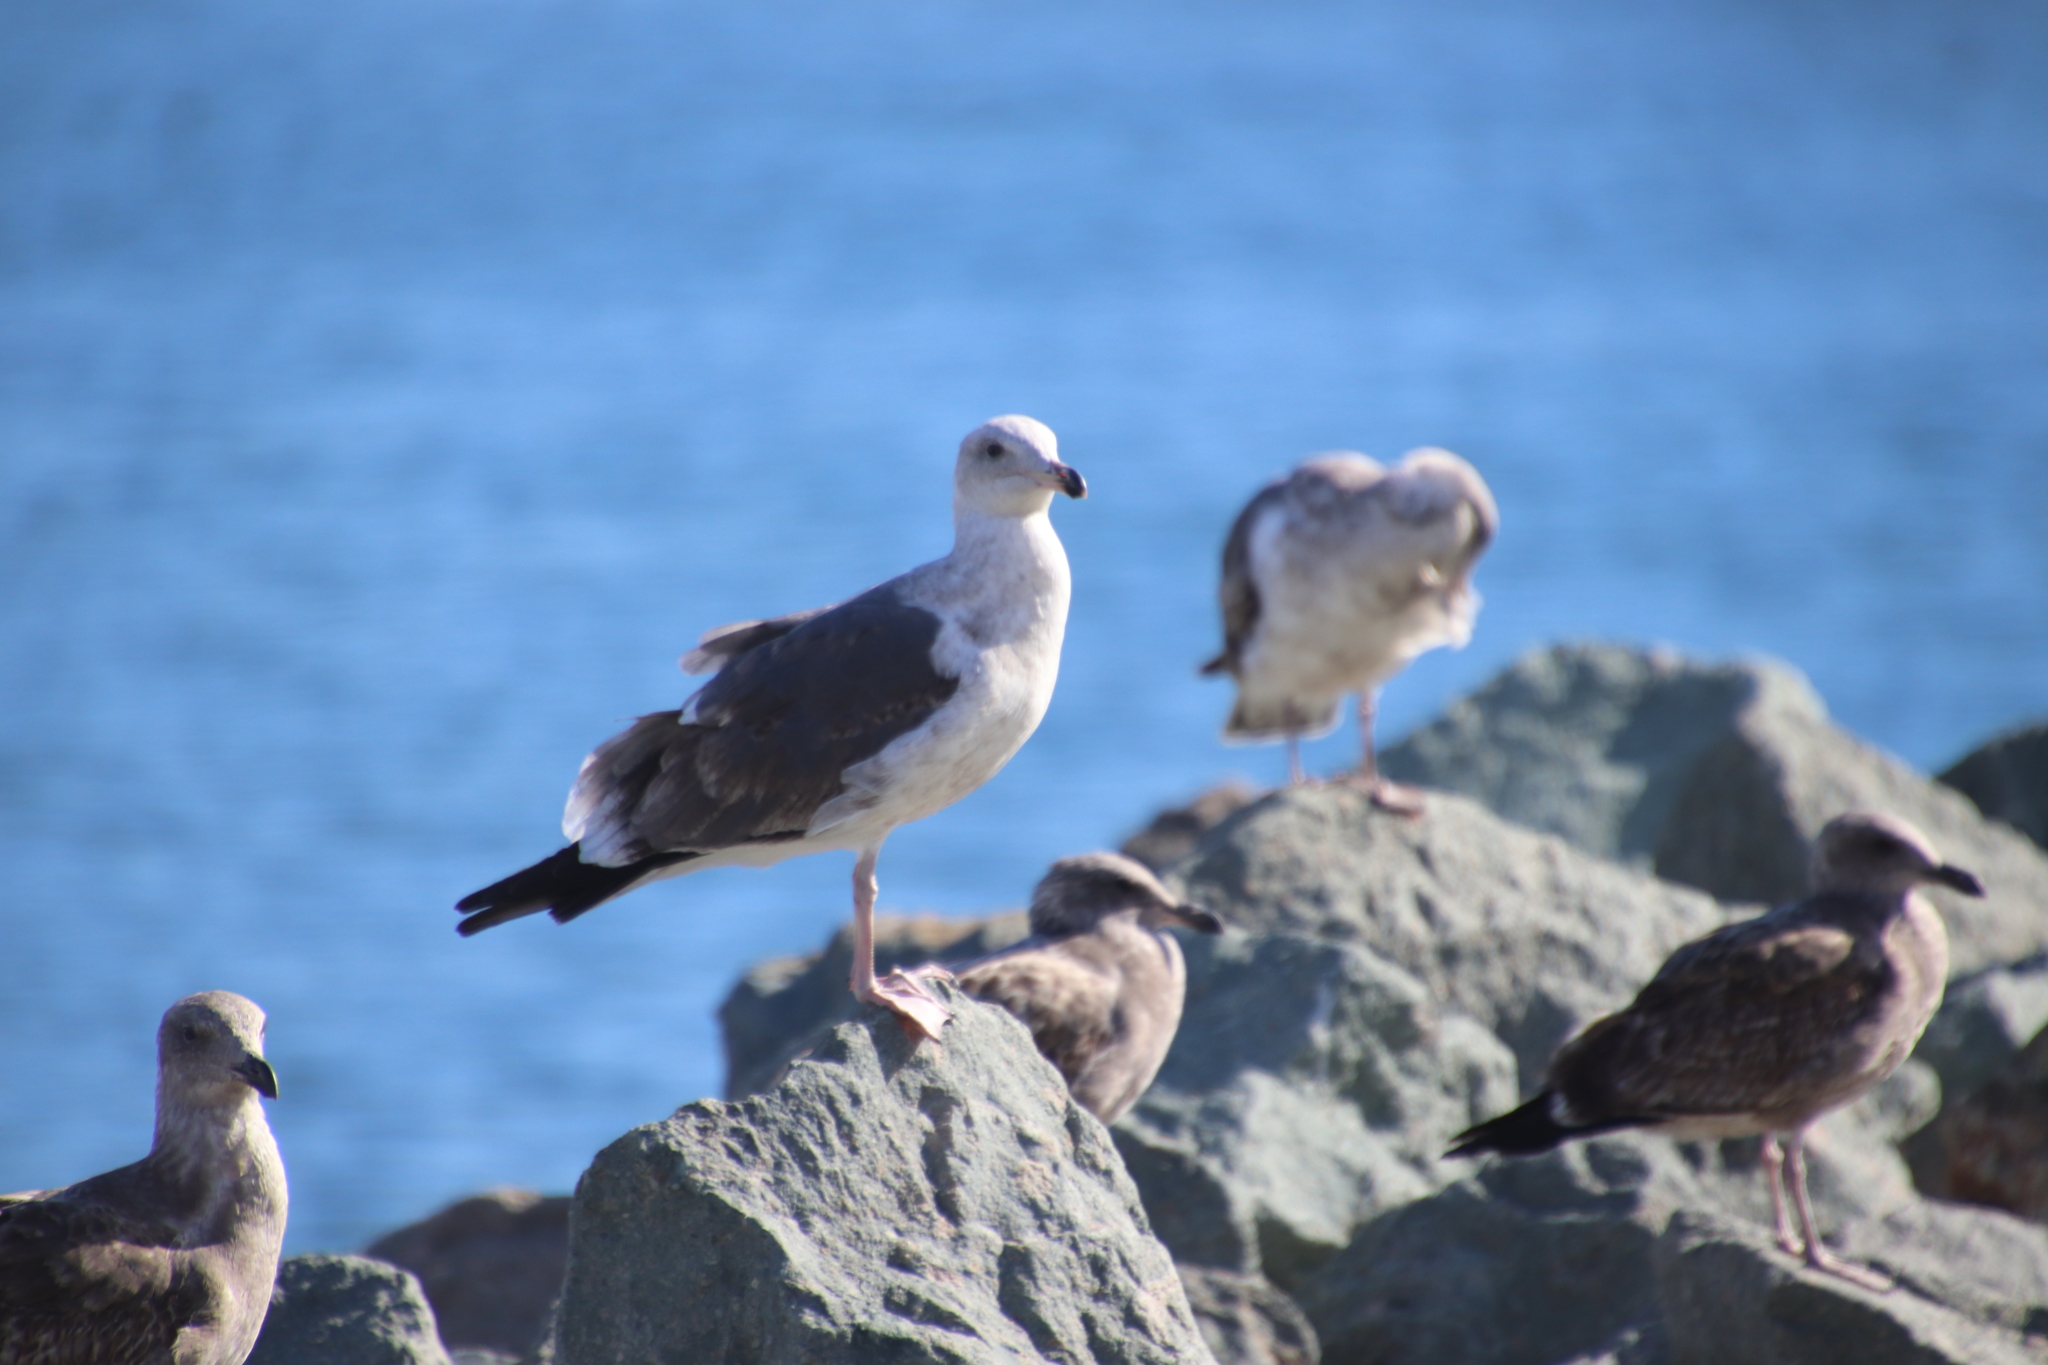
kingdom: Animalia
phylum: Chordata
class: Aves
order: Charadriiformes
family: Laridae
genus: Larus
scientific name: Larus occidentalis
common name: Western gull
